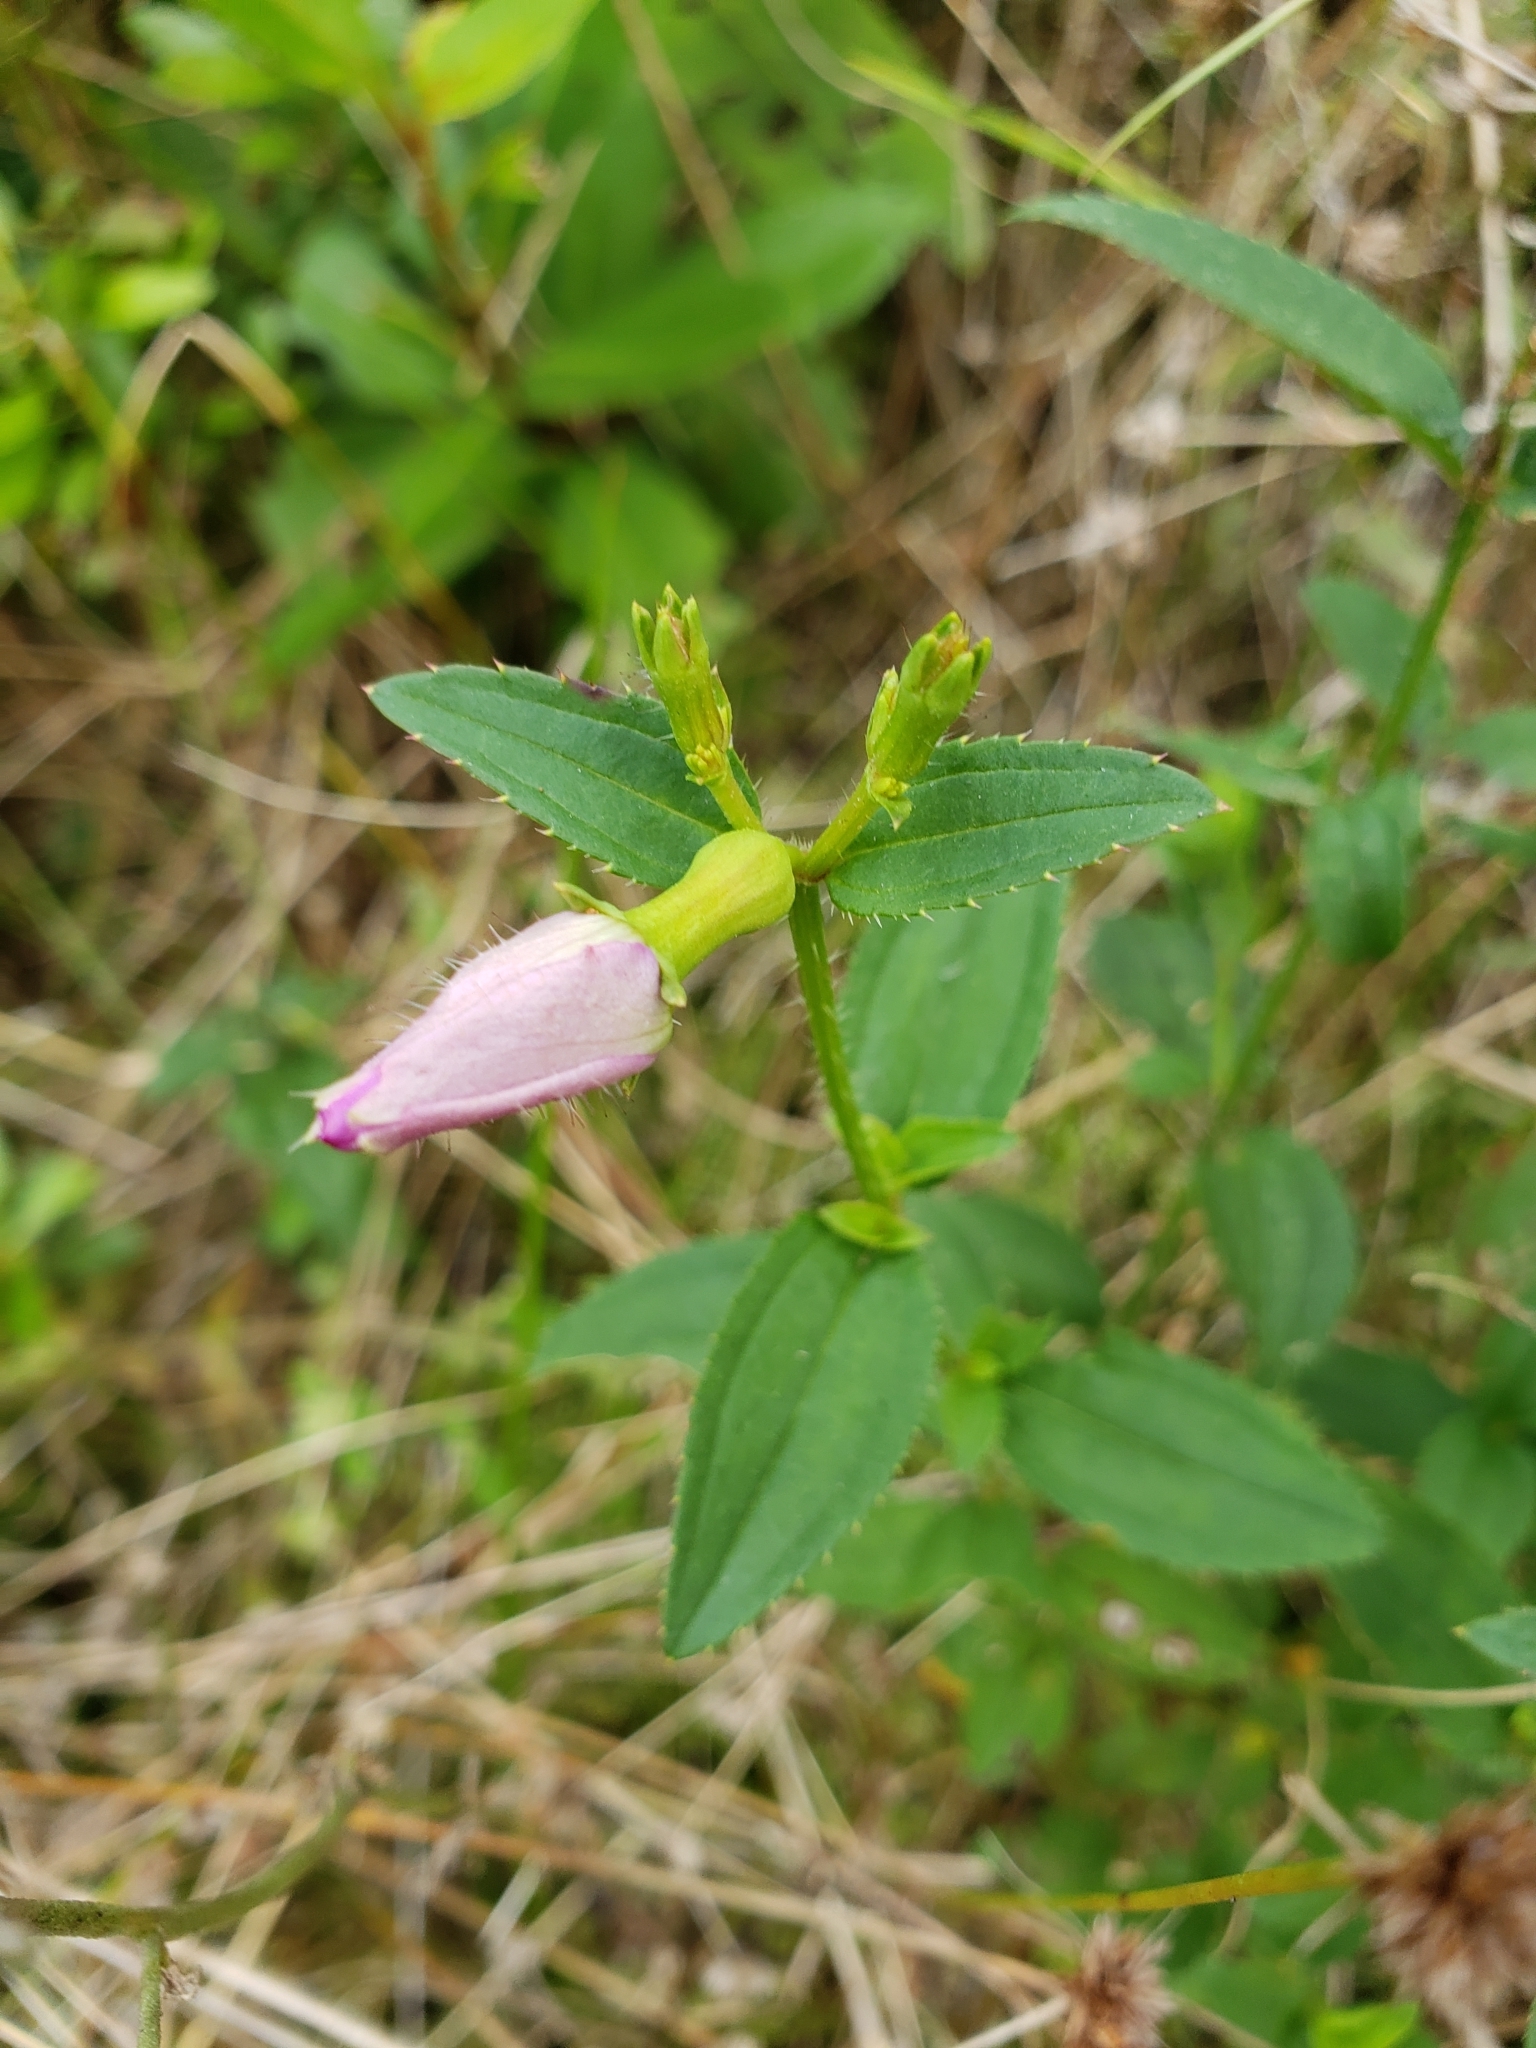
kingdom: Plantae
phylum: Tracheophyta
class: Magnoliopsida
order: Myrtales
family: Melastomataceae
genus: Rhexia
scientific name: Rhexia nashii
